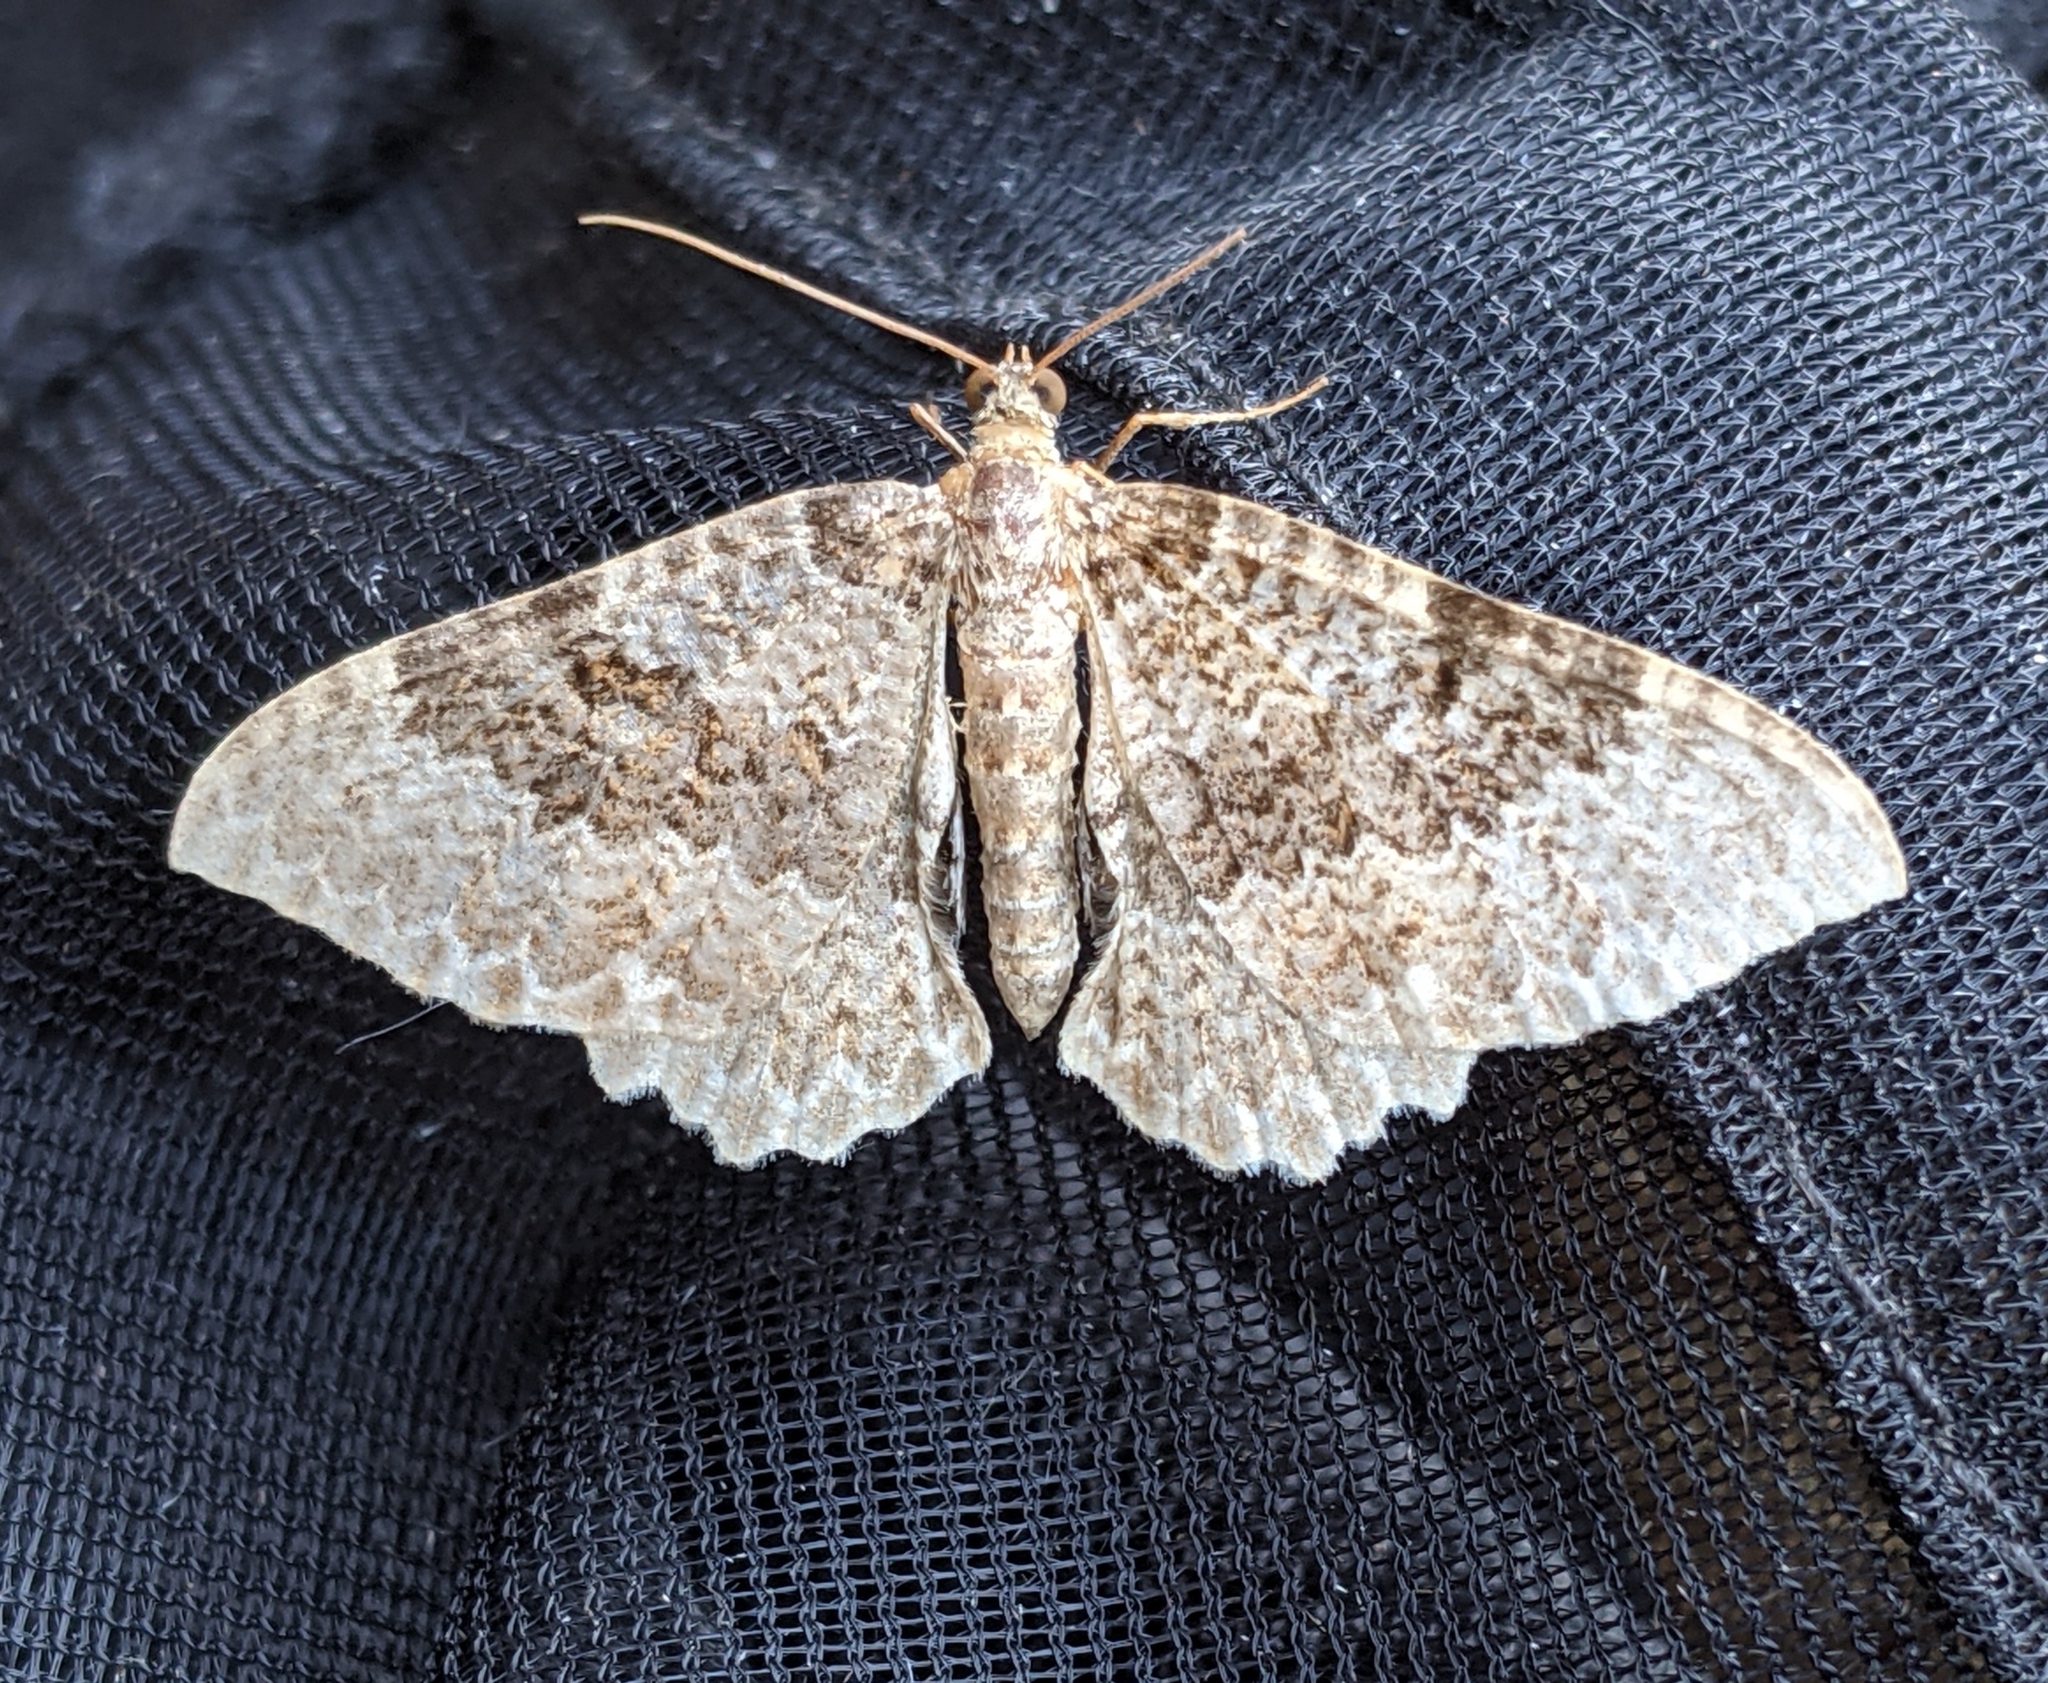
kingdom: Animalia
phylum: Arthropoda
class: Insecta
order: Lepidoptera
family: Geometridae
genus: Rheumaptera
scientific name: Rheumaptera undulata
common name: Scallop shell
